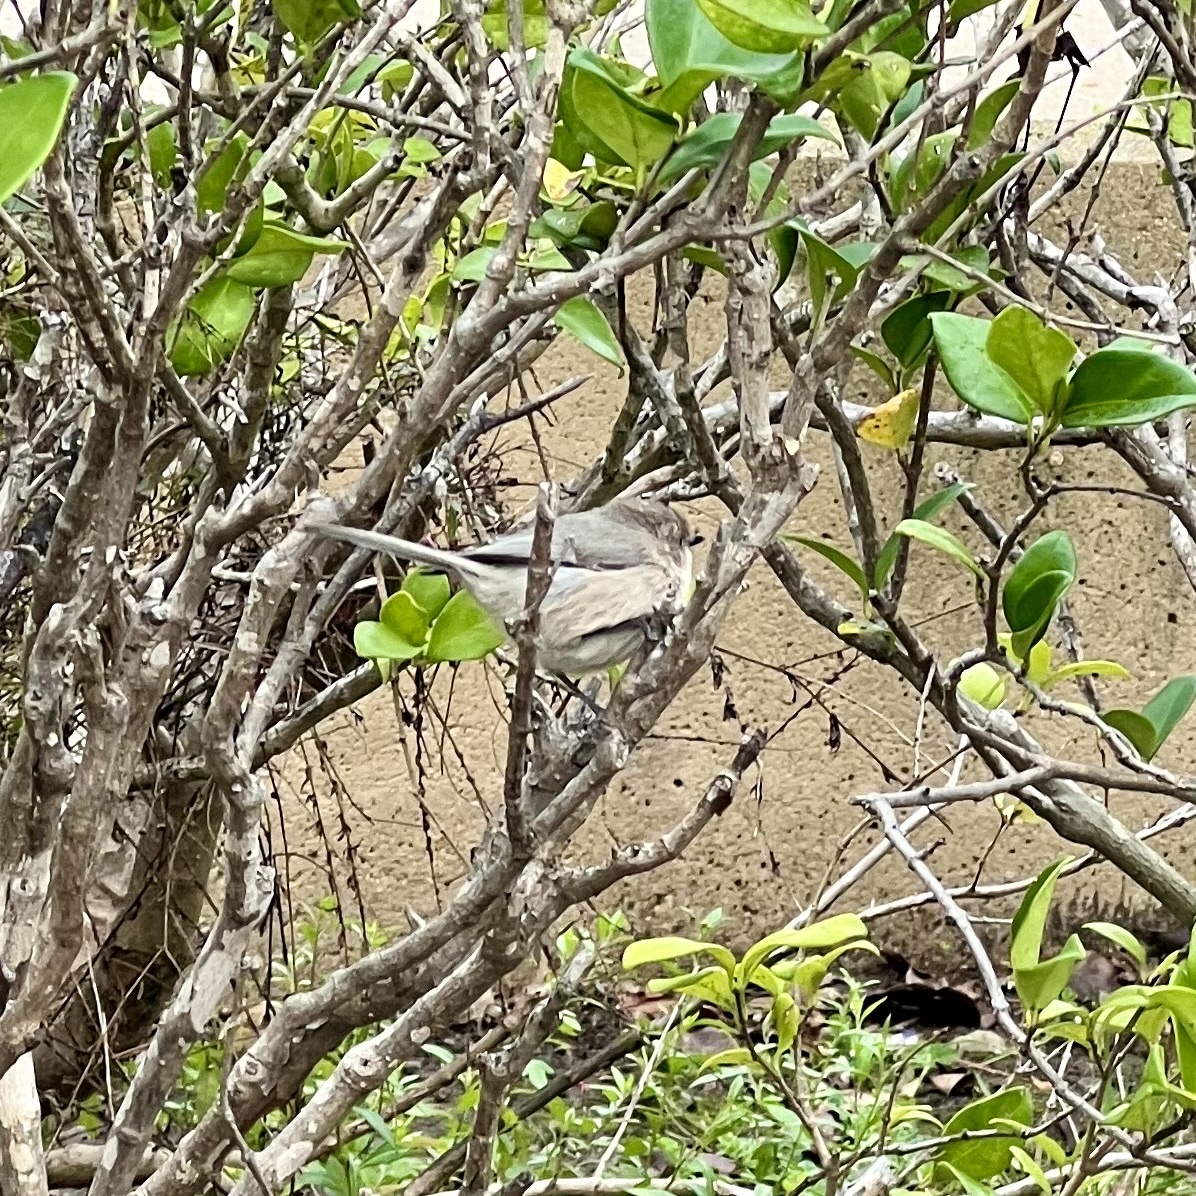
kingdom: Animalia
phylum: Chordata
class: Aves
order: Passeriformes
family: Aegithalidae
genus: Psaltriparus
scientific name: Psaltriparus minimus
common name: American bushtit
